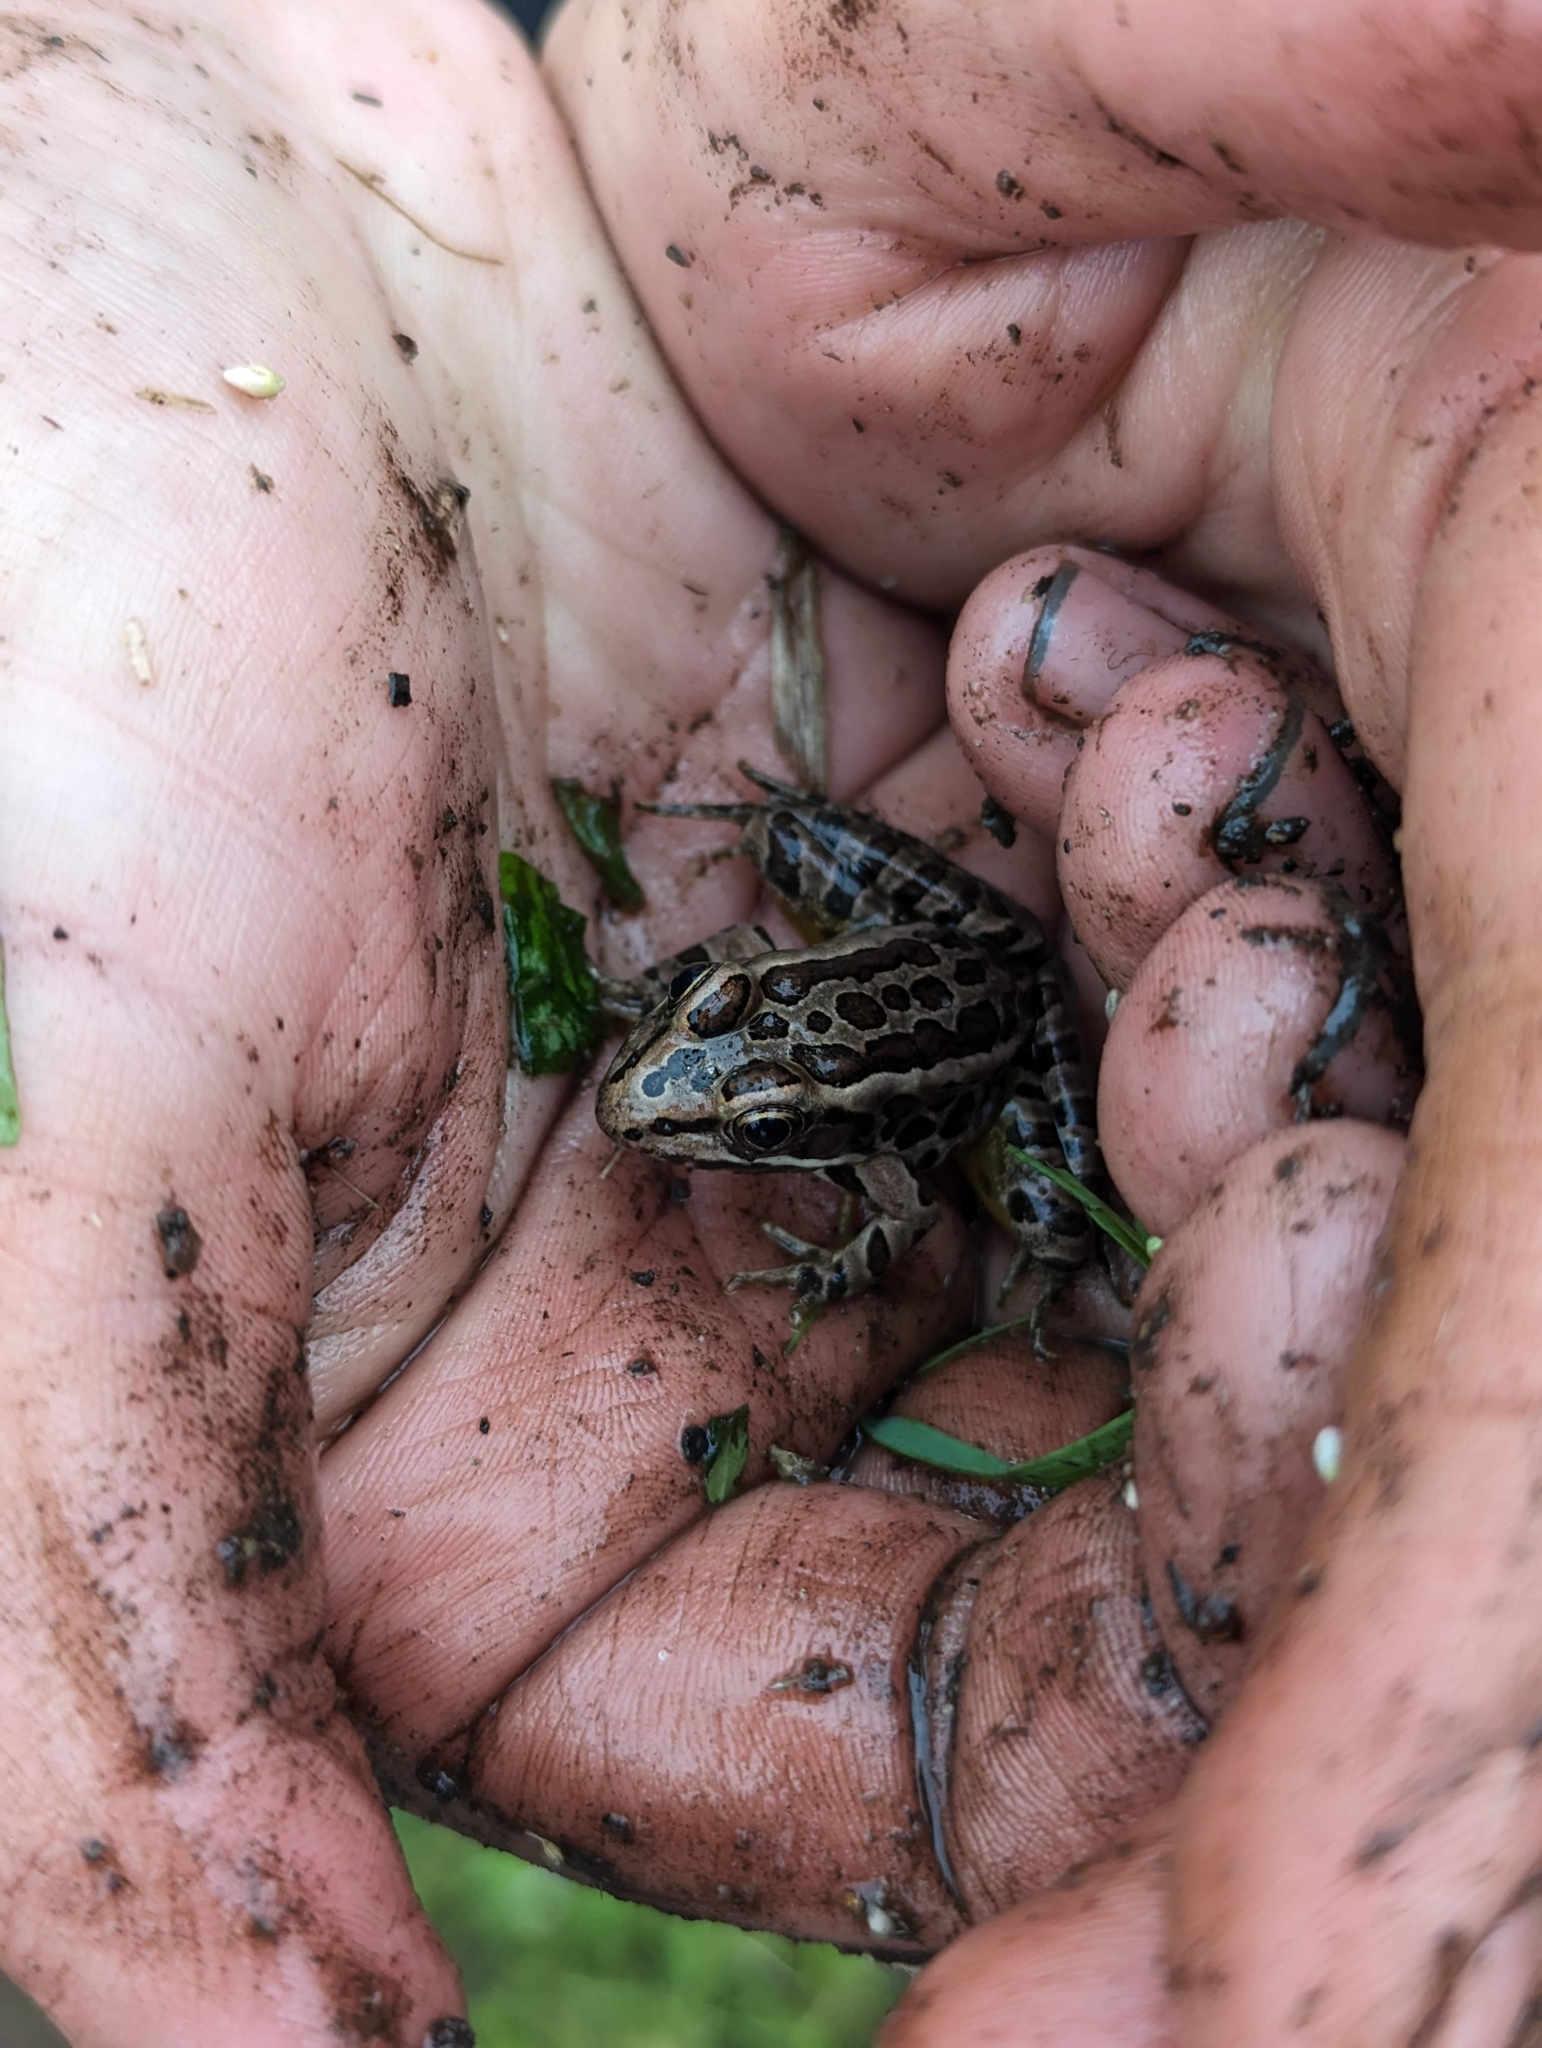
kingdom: Animalia
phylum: Chordata
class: Amphibia
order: Anura
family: Ranidae
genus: Lithobates
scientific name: Lithobates palustris
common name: Pickerel frog
